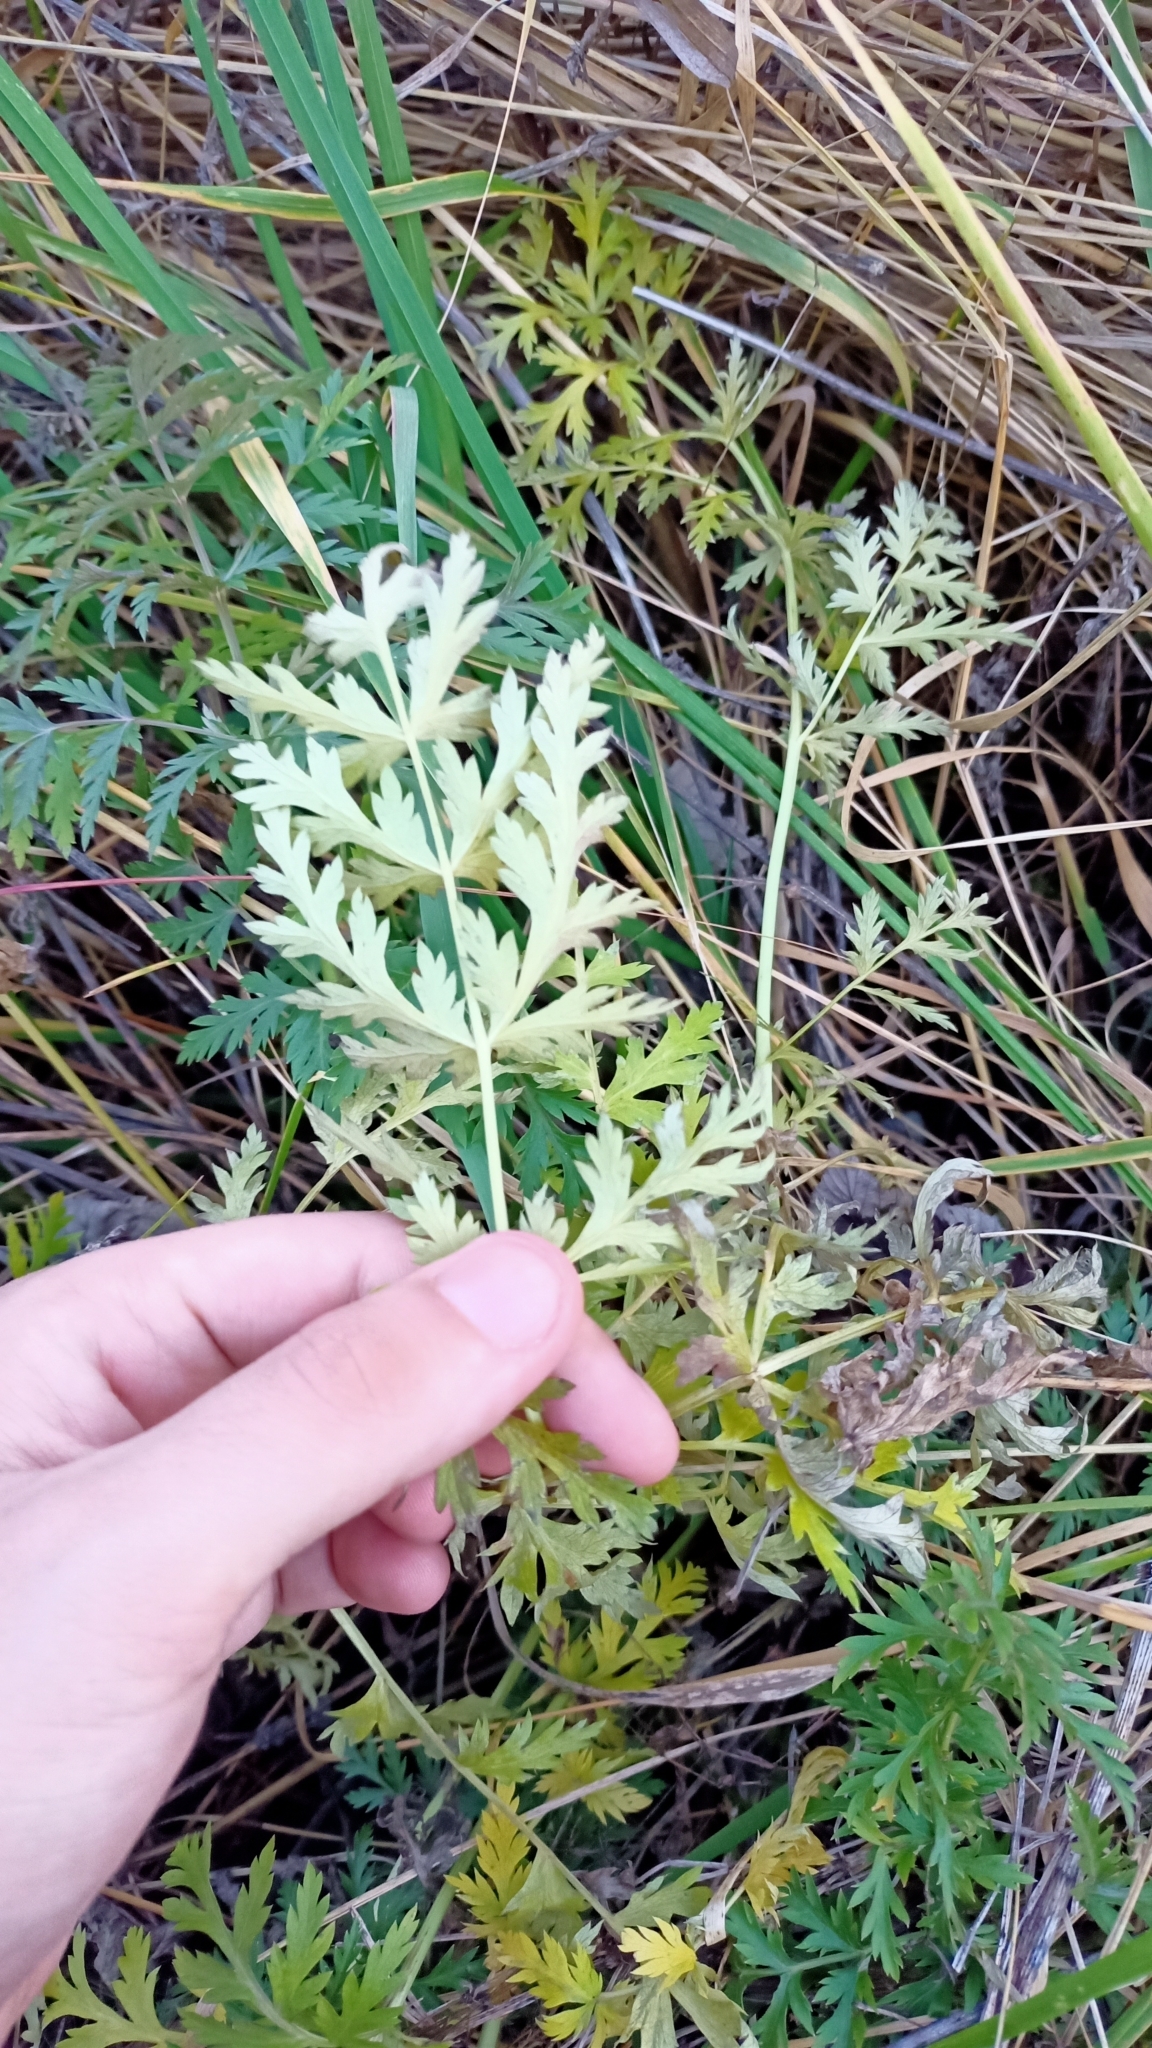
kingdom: Plantae
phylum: Tracheophyta
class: Magnoliopsida
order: Apiales
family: Apiaceae
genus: Seseli
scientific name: Seseli libanotis
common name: Mooncarrot
